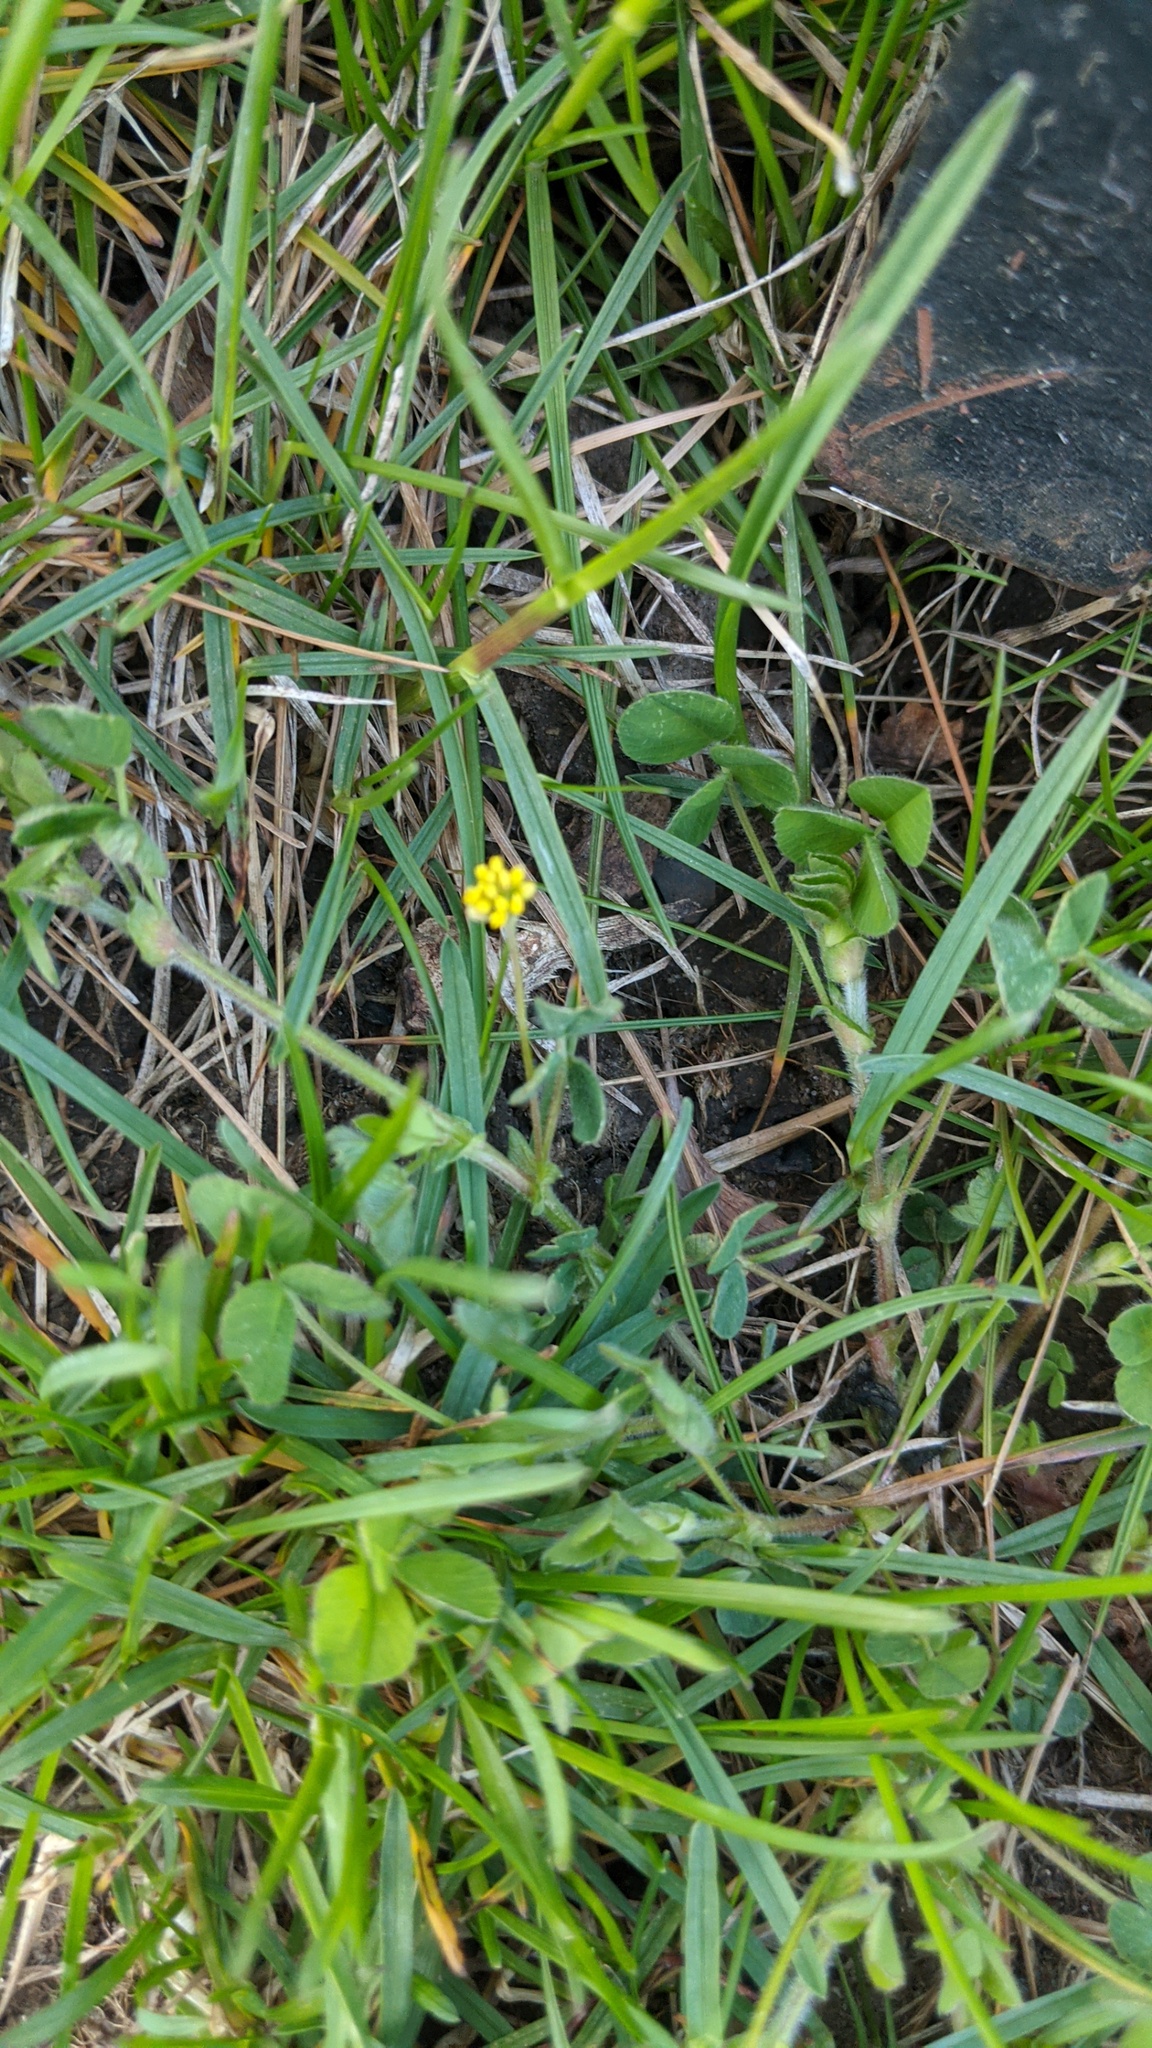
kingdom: Plantae
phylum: Tracheophyta
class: Magnoliopsida
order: Fabales
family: Fabaceae
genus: Medicago
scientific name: Medicago lupulina
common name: Black medick
